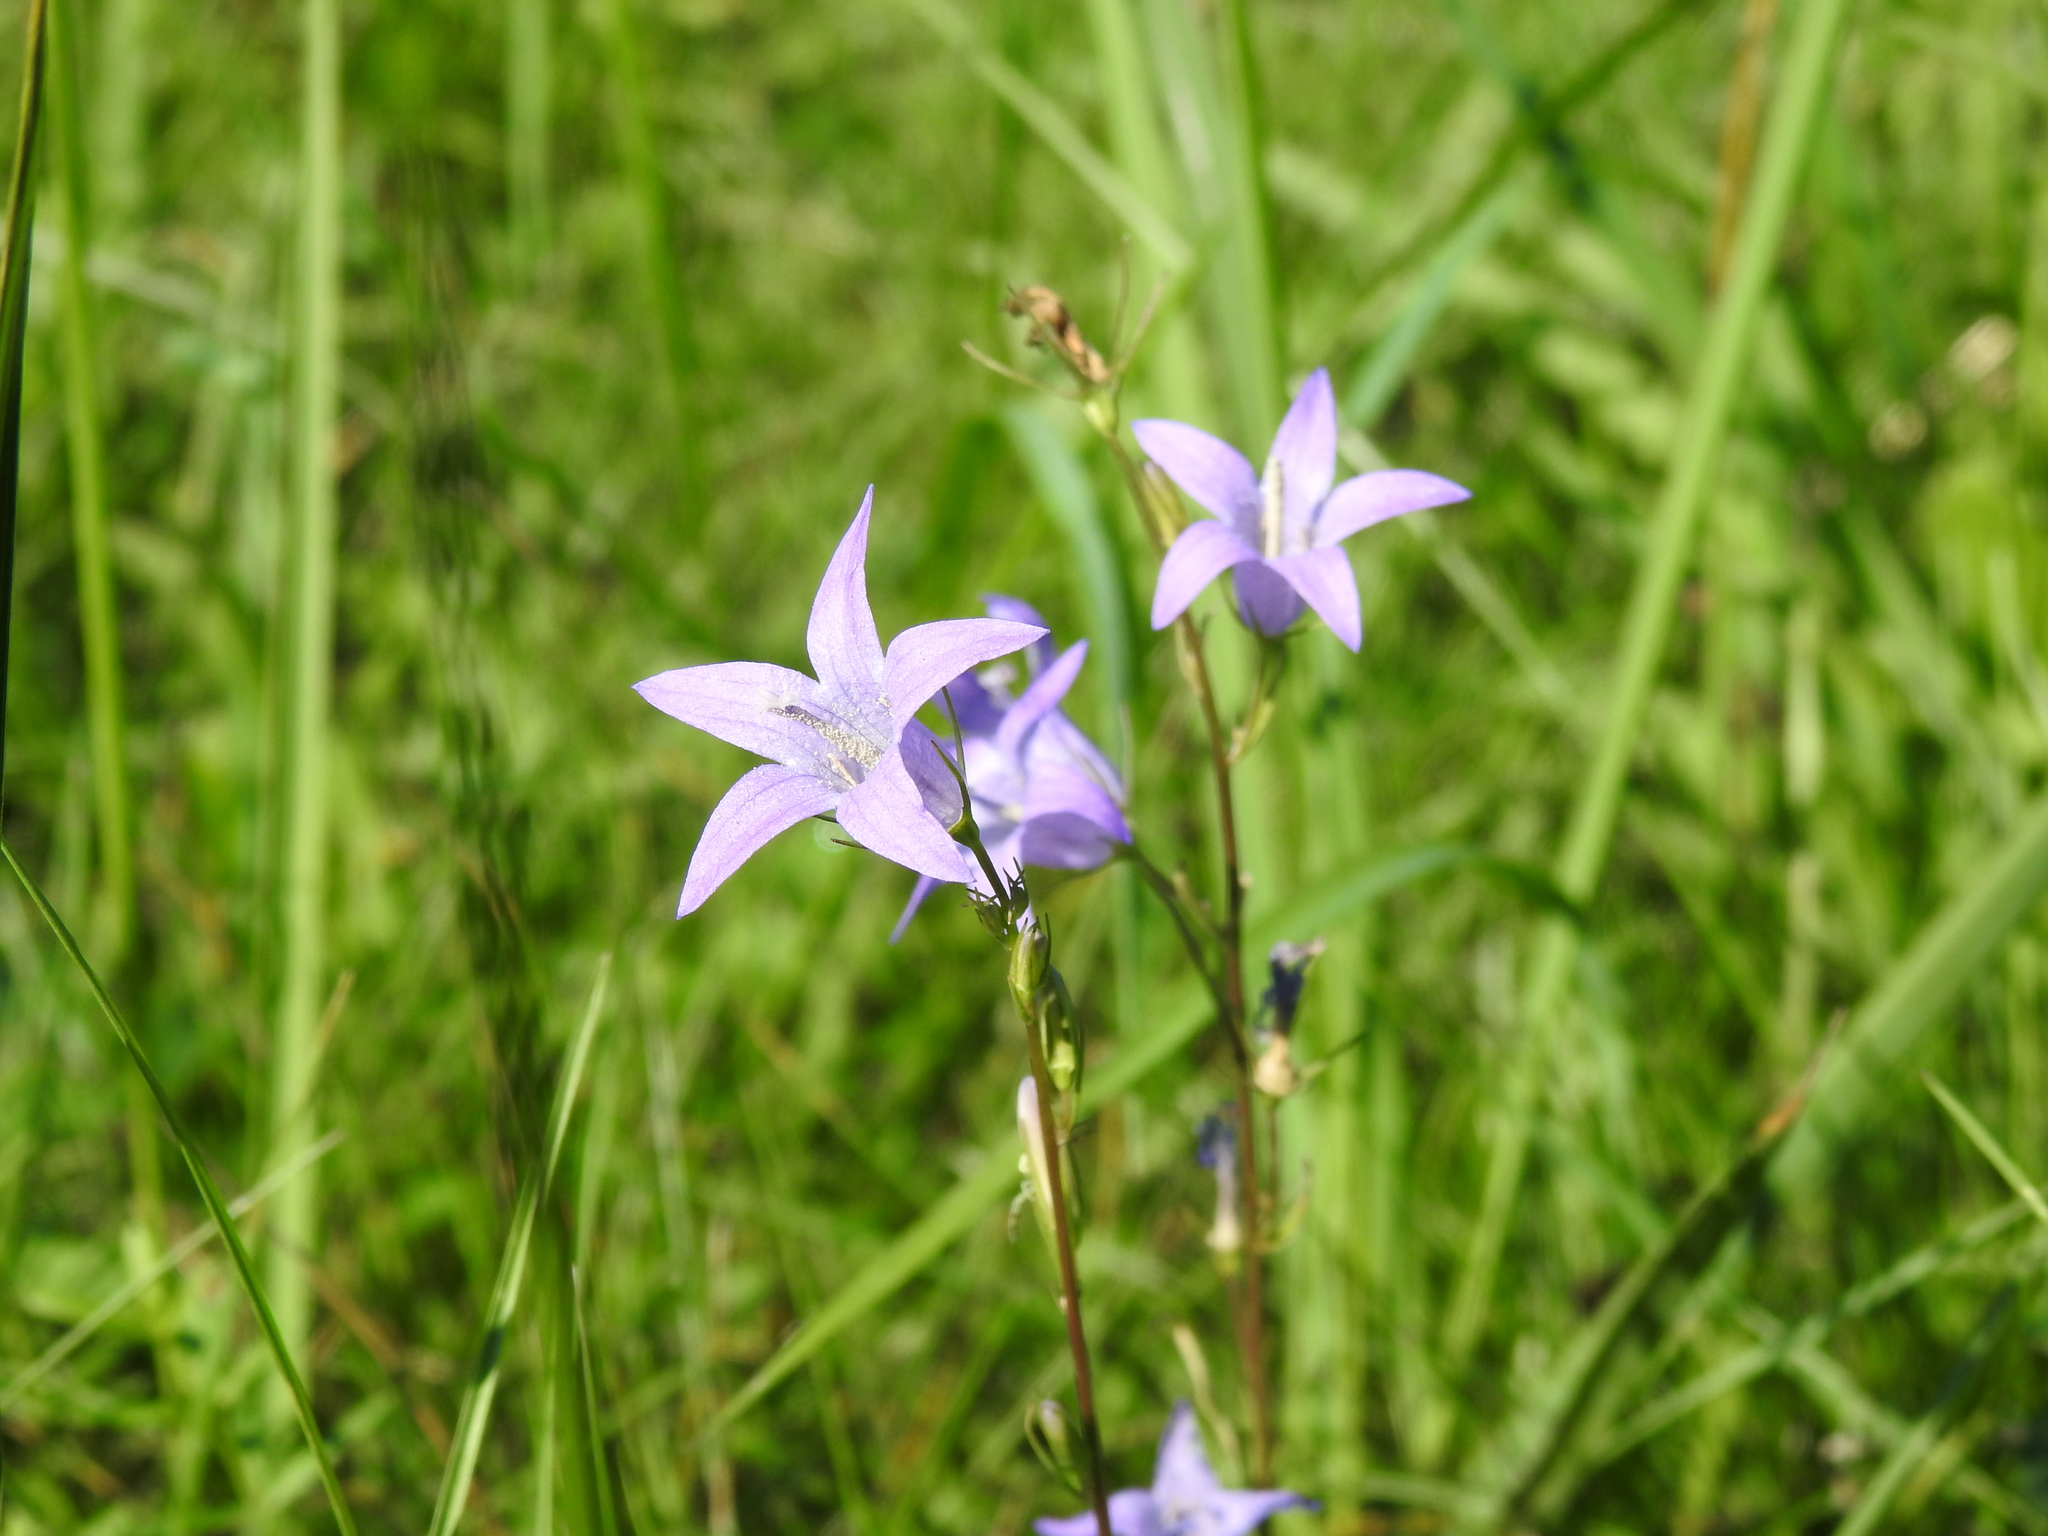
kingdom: Plantae
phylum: Tracheophyta
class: Magnoliopsida
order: Asterales
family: Campanulaceae
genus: Campanula
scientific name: Campanula rapunculus
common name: Rampion bellflower
